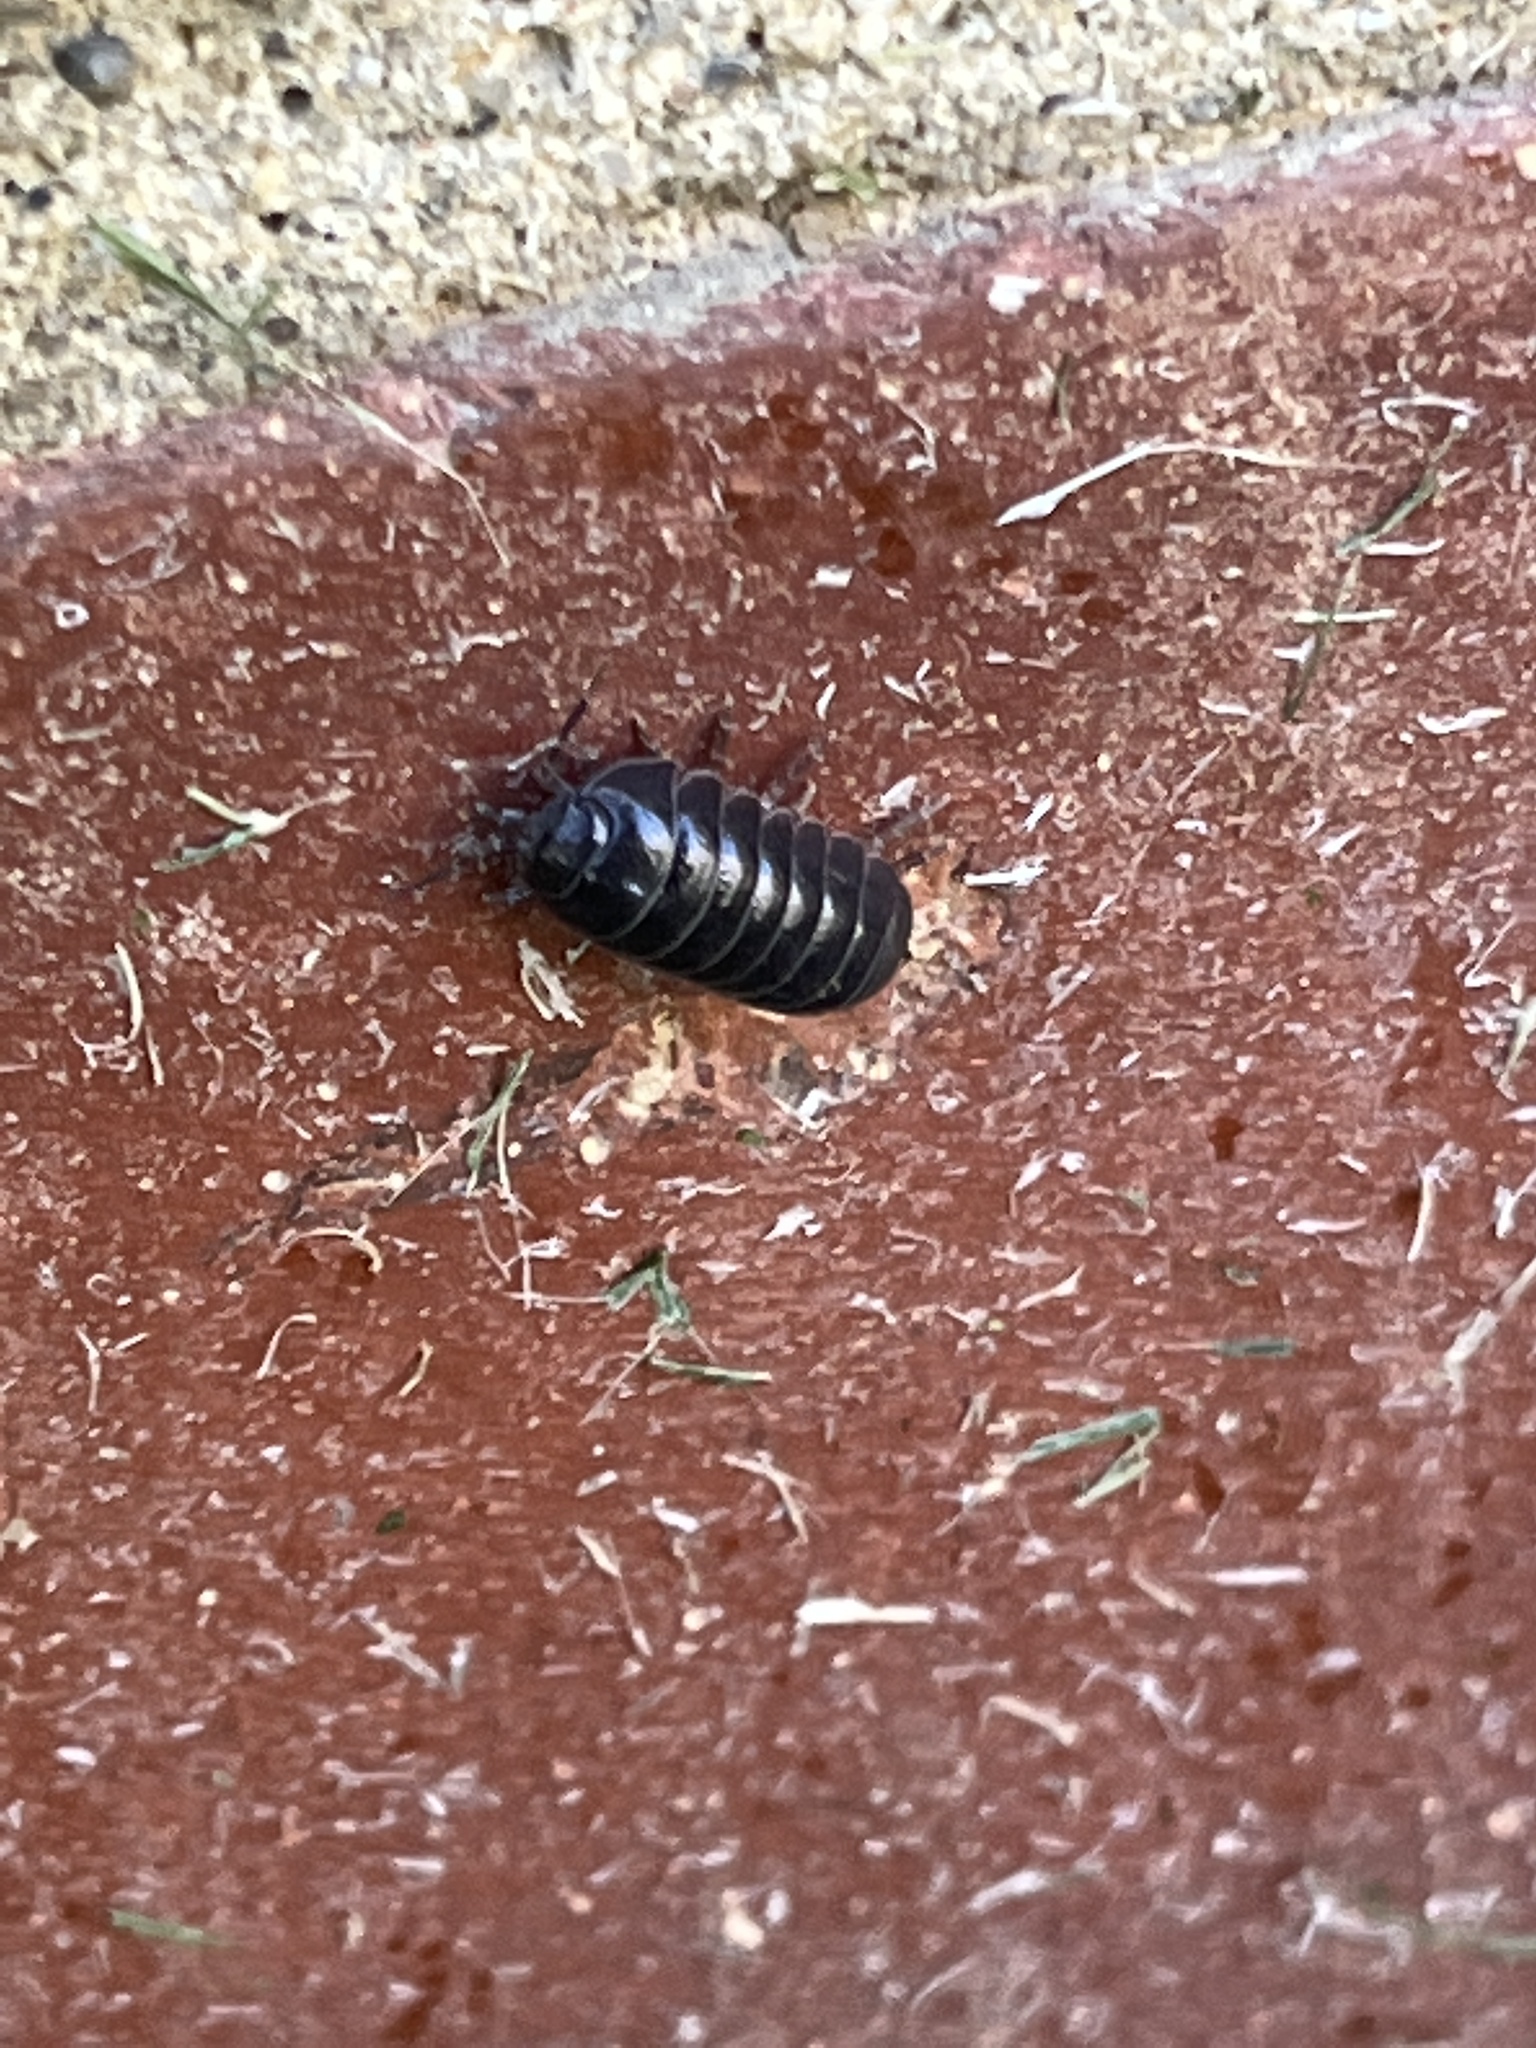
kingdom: Animalia
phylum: Arthropoda
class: Malacostraca
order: Isopoda
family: Armadillidiidae
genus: Armadillidium
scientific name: Armadillidium vulgare
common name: Common pill woodlouse
